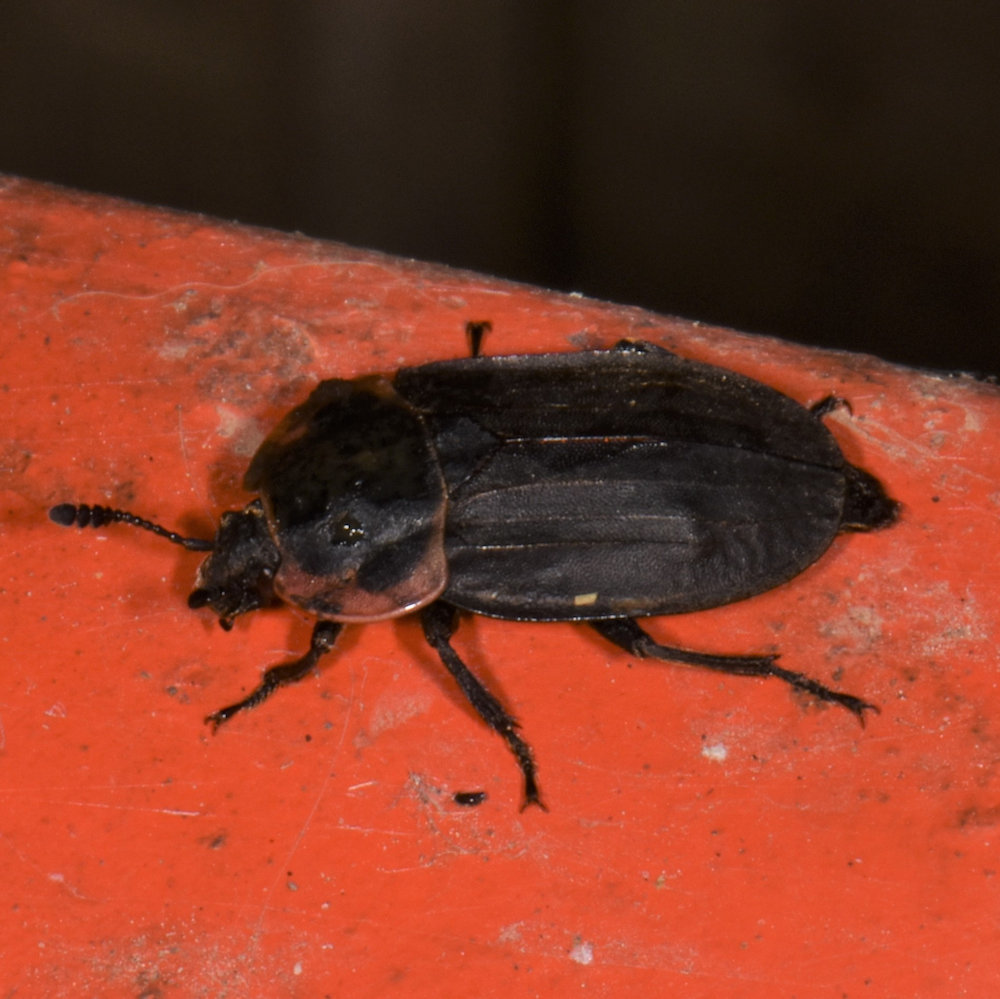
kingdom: Animalia
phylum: Arthropoda
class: Insecta
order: Coleoptera
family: Staphylinidae
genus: Oiceoptoma
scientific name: Oiceoptoma noveboracense
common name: Margined carrion beetle
